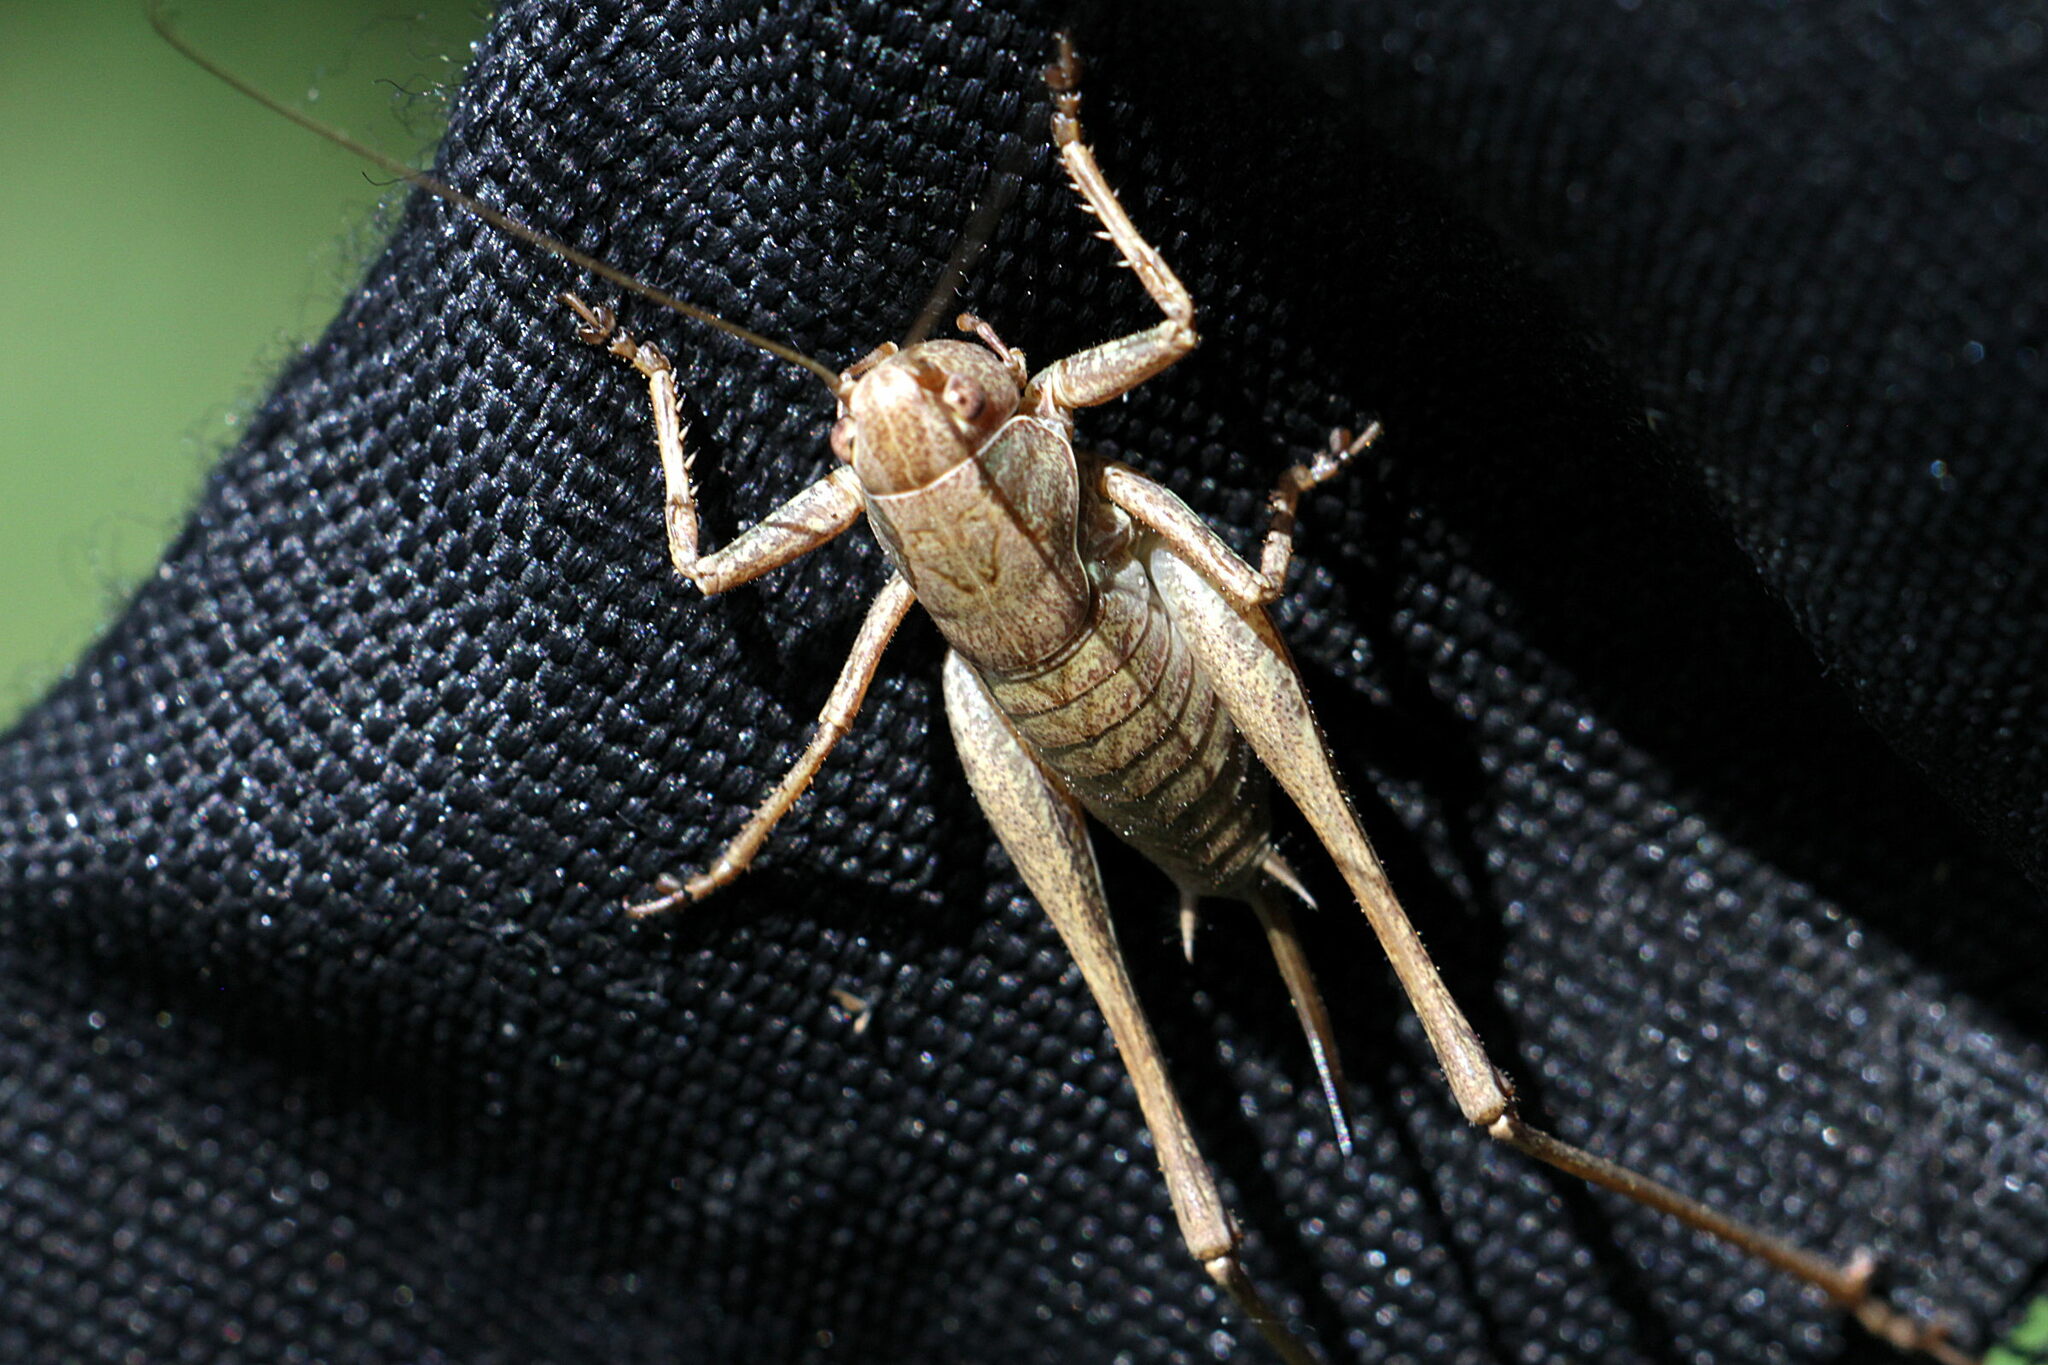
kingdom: Animalia
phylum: Arthropoda
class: Insecta
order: Orthoptera
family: Tettigoniidae
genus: Pholidoptera
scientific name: Pholidoptera griseoaptera
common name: Dark bush-cricket
